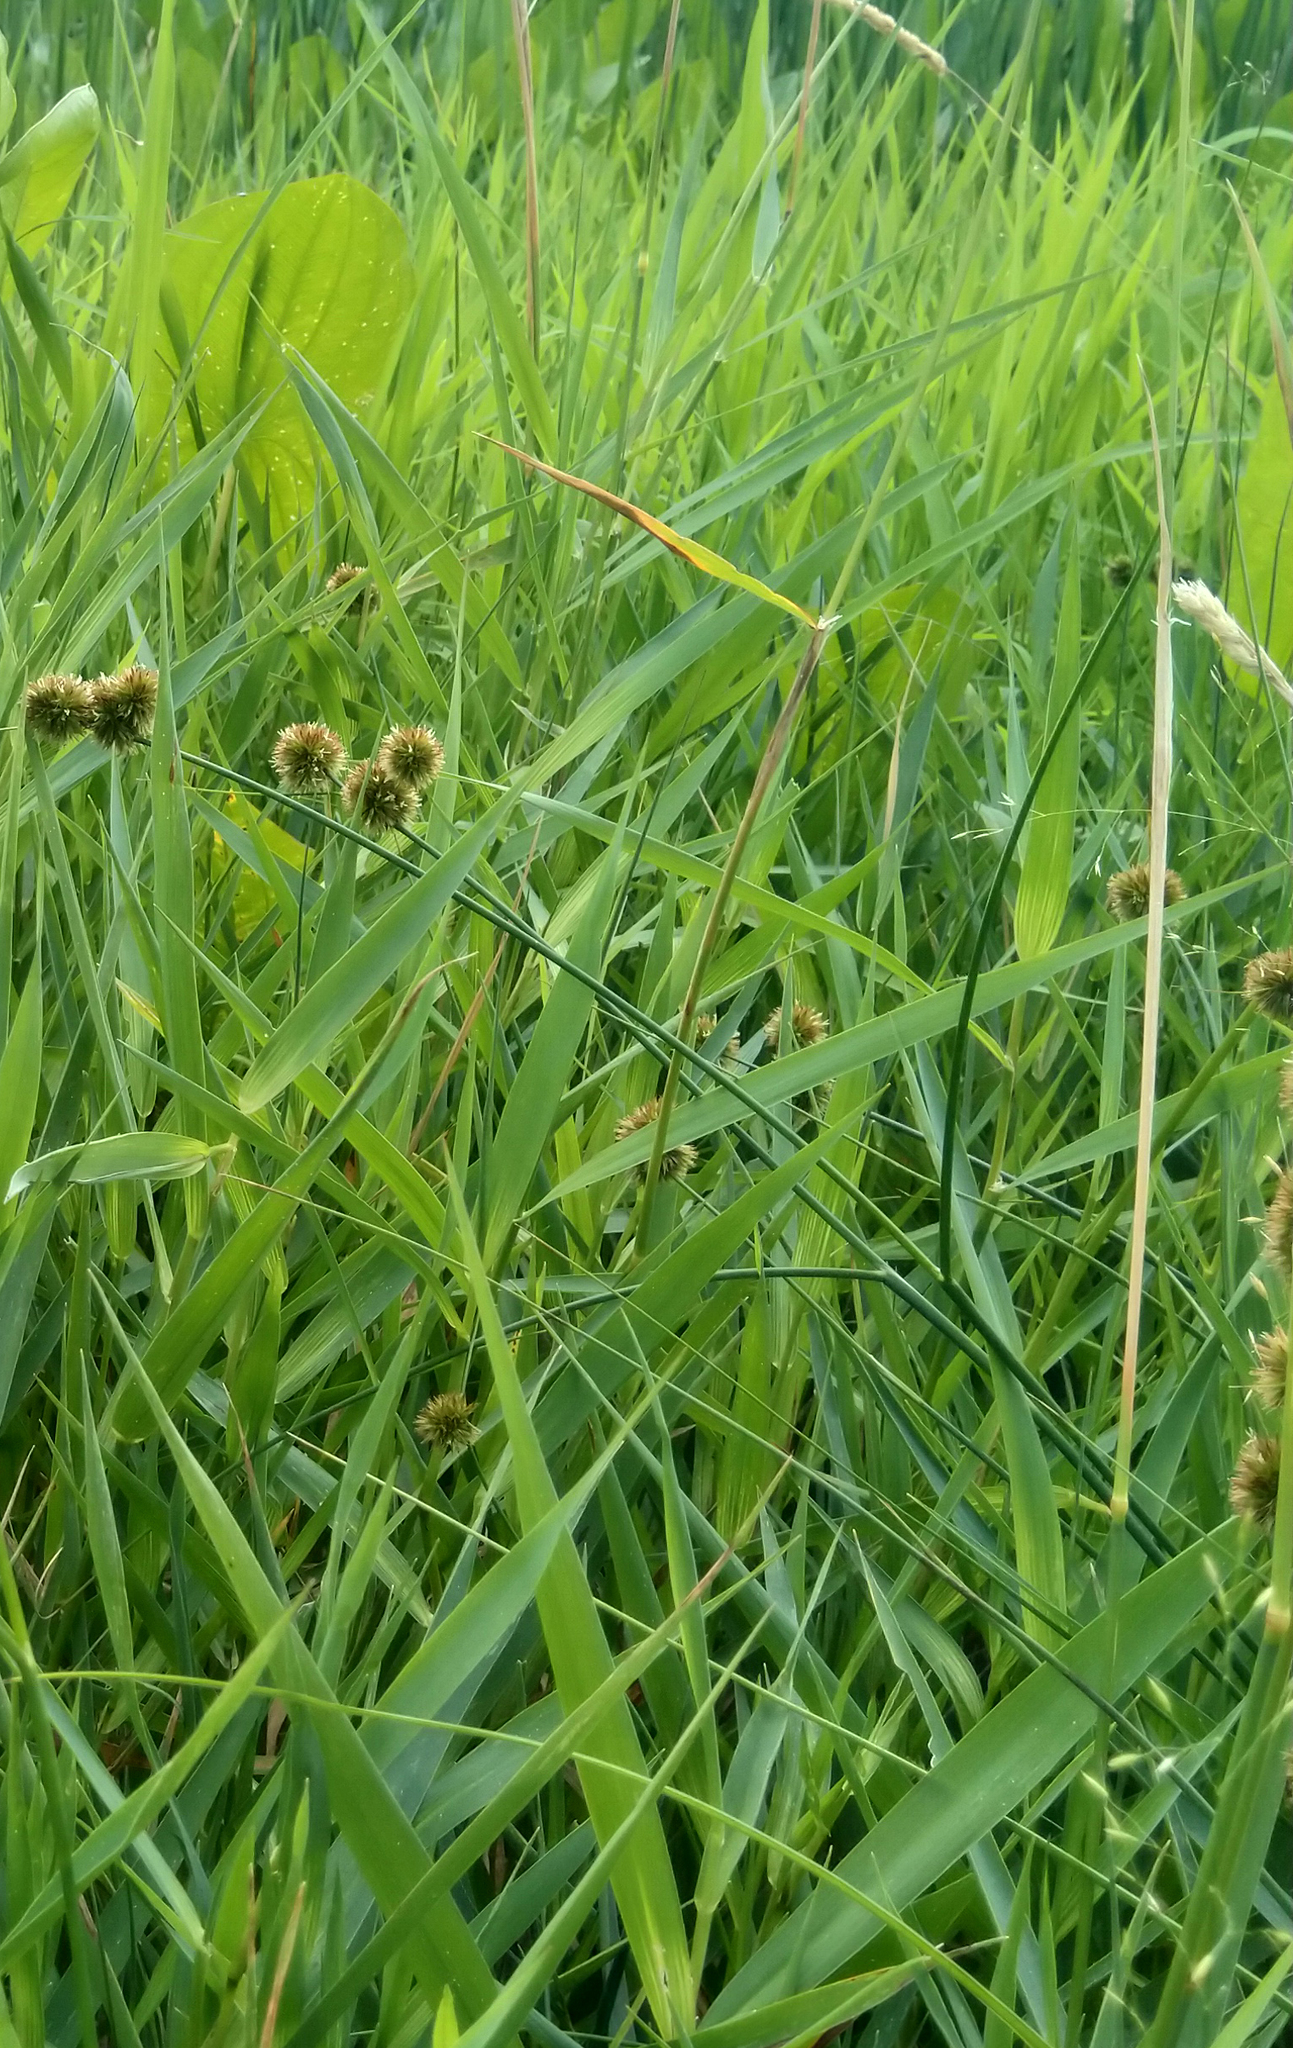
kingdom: Plantae
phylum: Tracheophyta
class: Liliopsida
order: Poales
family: Juncaceae
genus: Juncus
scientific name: Juncus torreyi
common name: Torrey's rush
